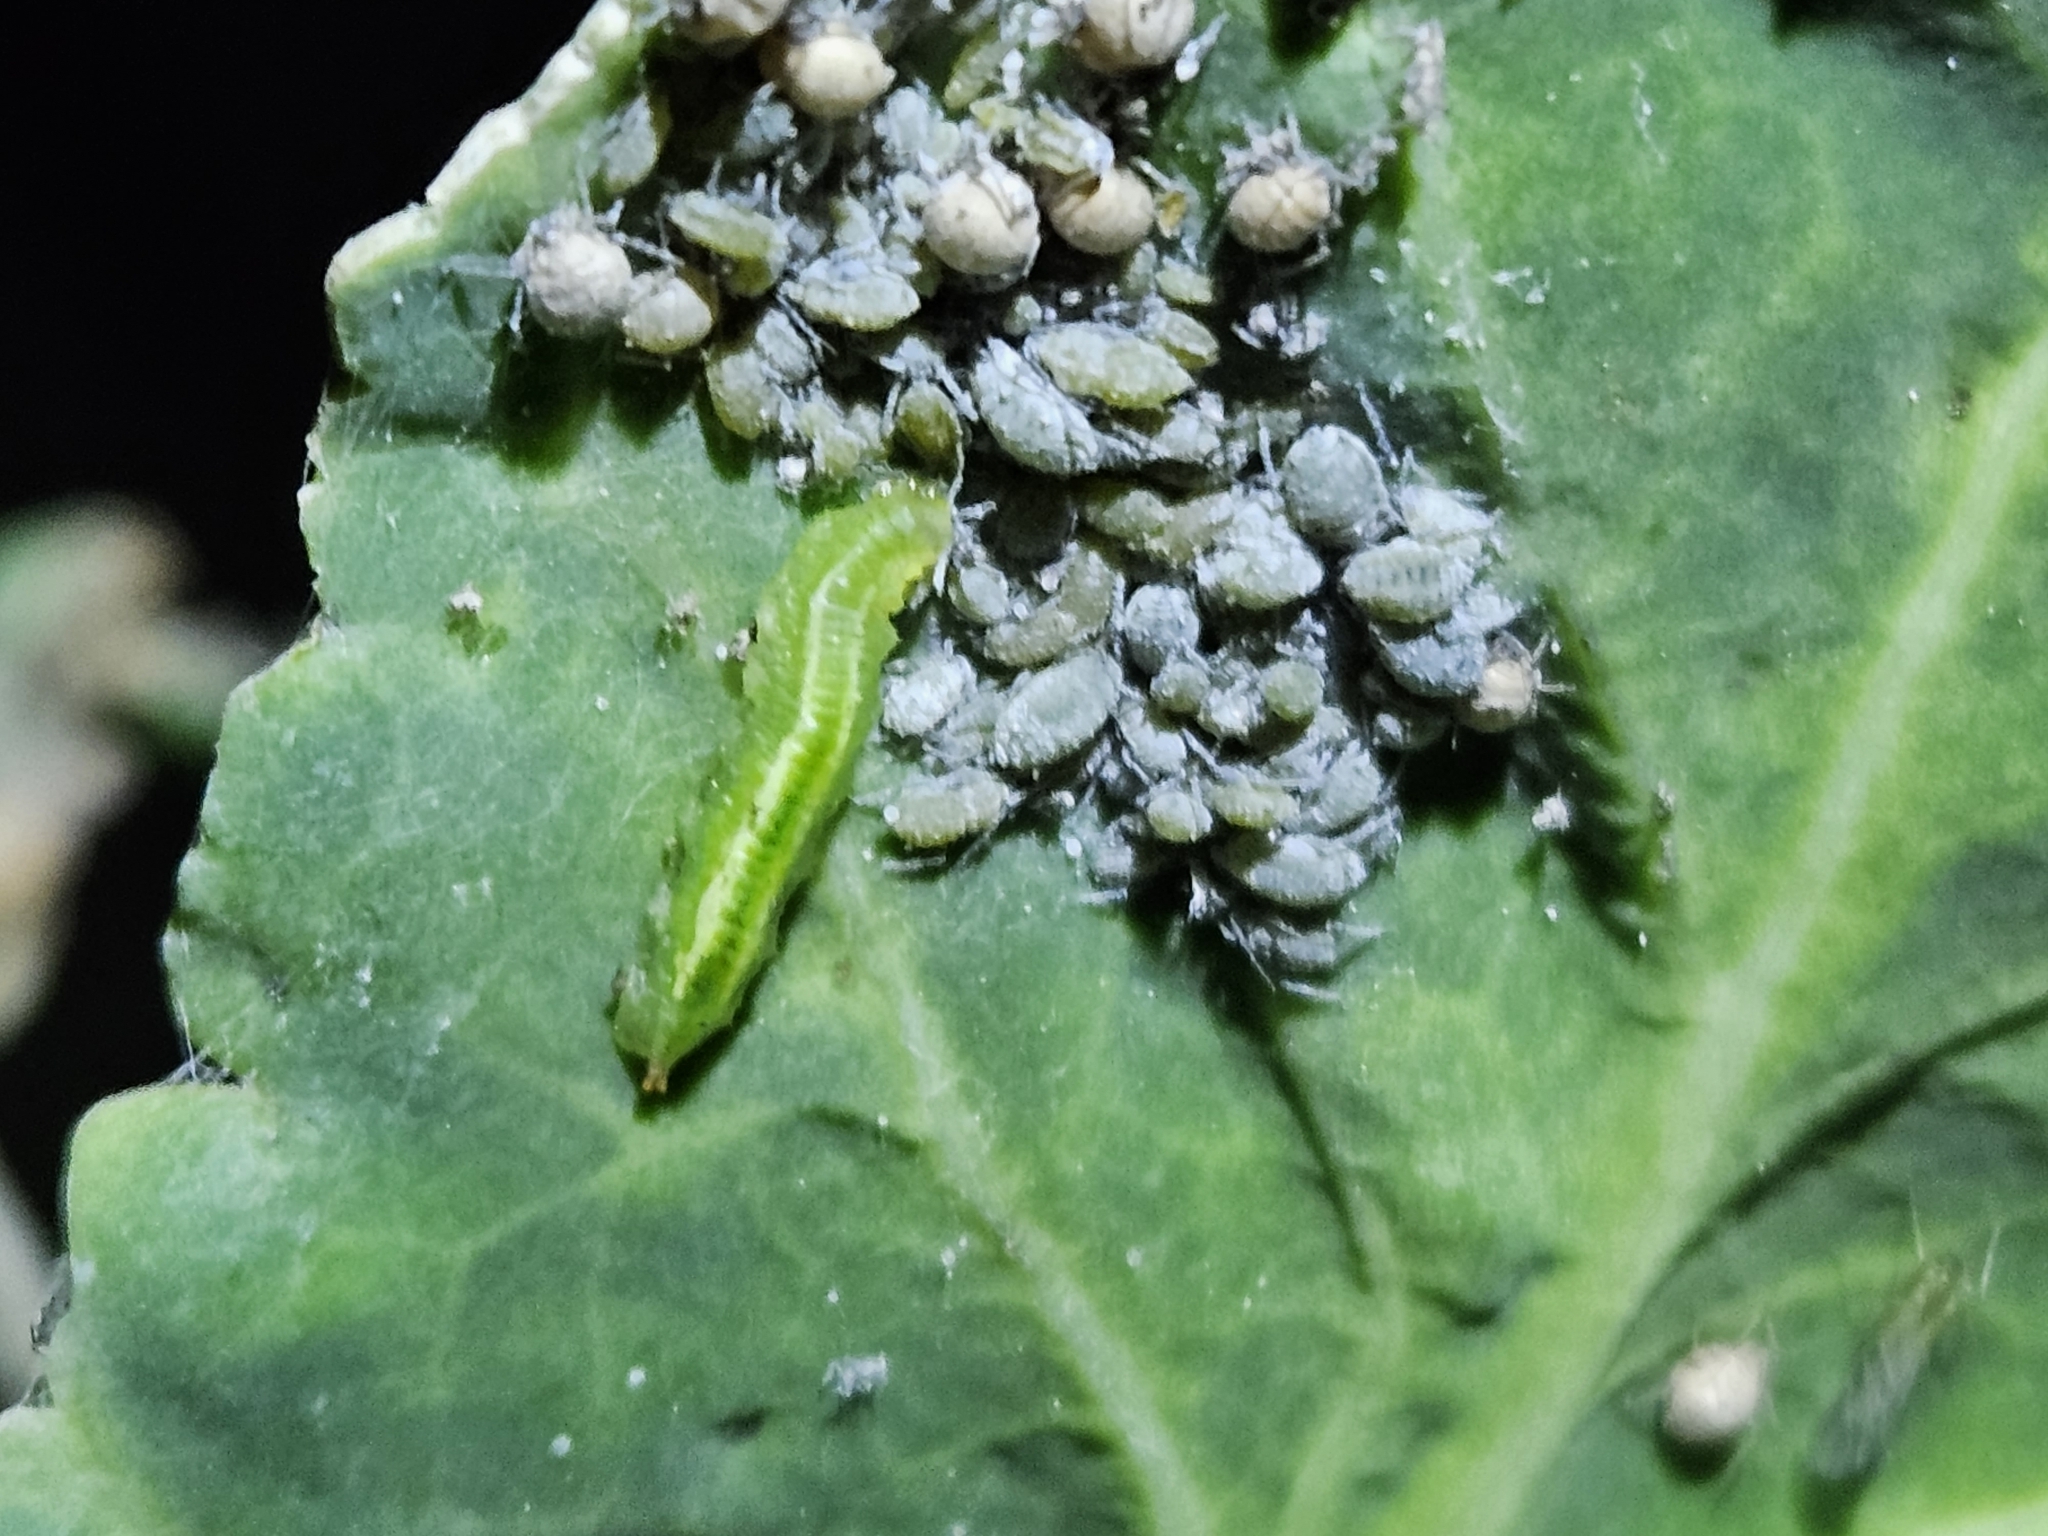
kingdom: Animalia
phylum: Arthropoda
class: Insecta
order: Hemiptera
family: Aphididae
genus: Brevicoryne
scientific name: Brevicoryne brassicae
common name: Cabbage aphid
